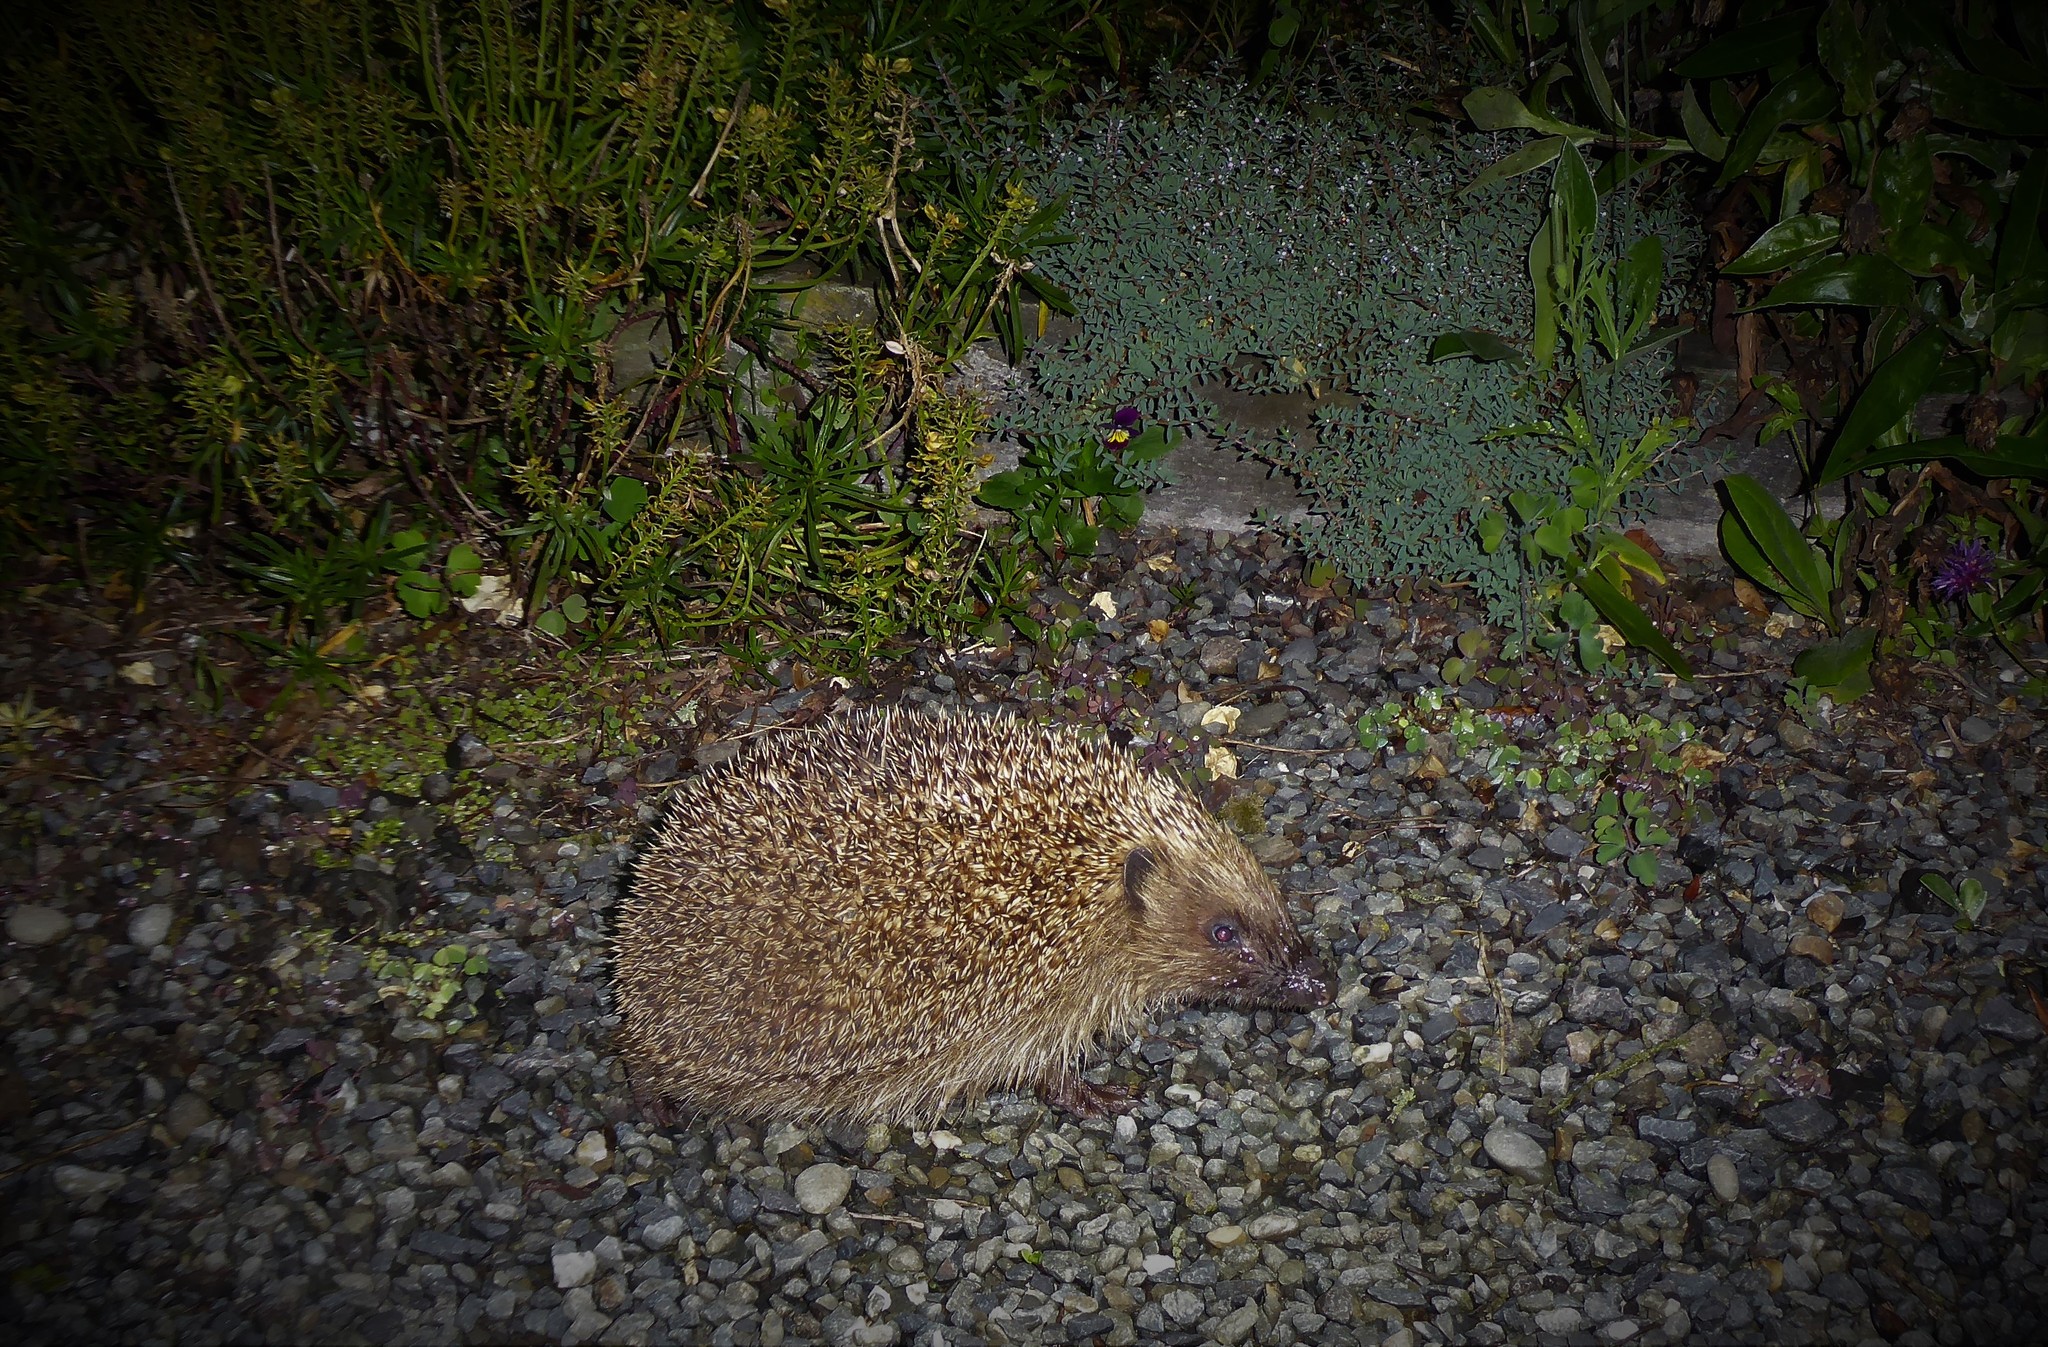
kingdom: Animalia
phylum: Chordata
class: Mammalia
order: Erinaceomorpha
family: Erinaceidae
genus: Erinaceus
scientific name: Erinaceus europaeus
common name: West european hedgehog
